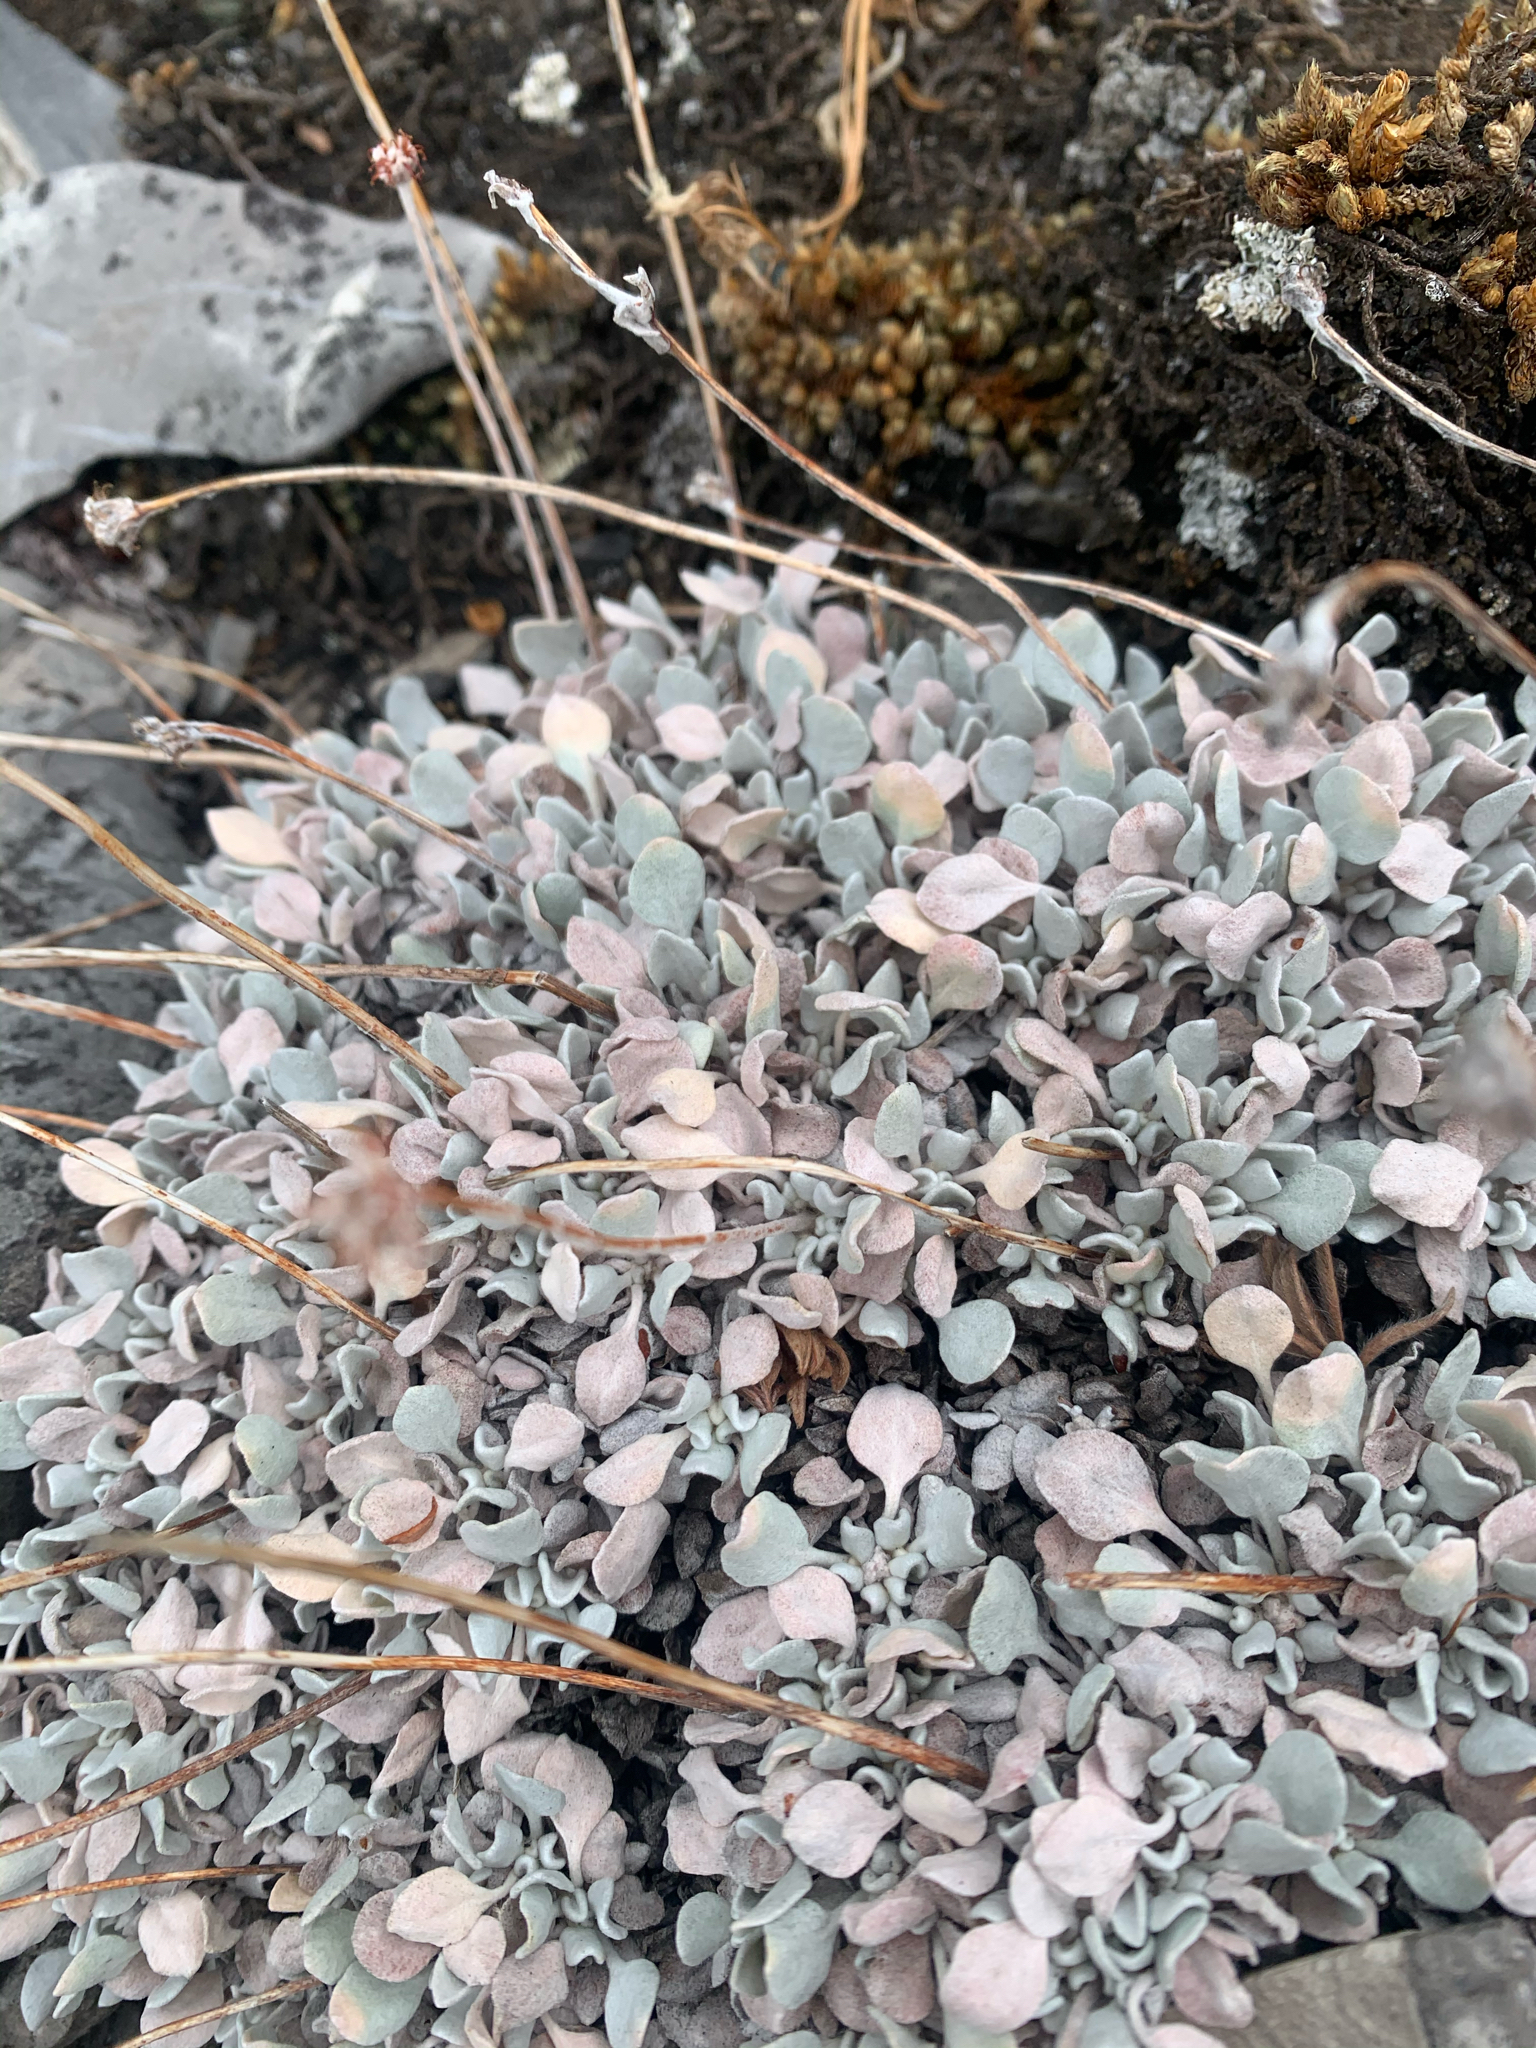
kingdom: Plantae
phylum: Tracheophyta
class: Magnoliopsida
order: Caryophyllales
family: Polygonaceae
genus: Eriogonum
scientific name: Eriogonum ovalifolium
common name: Cushion buckwheat
